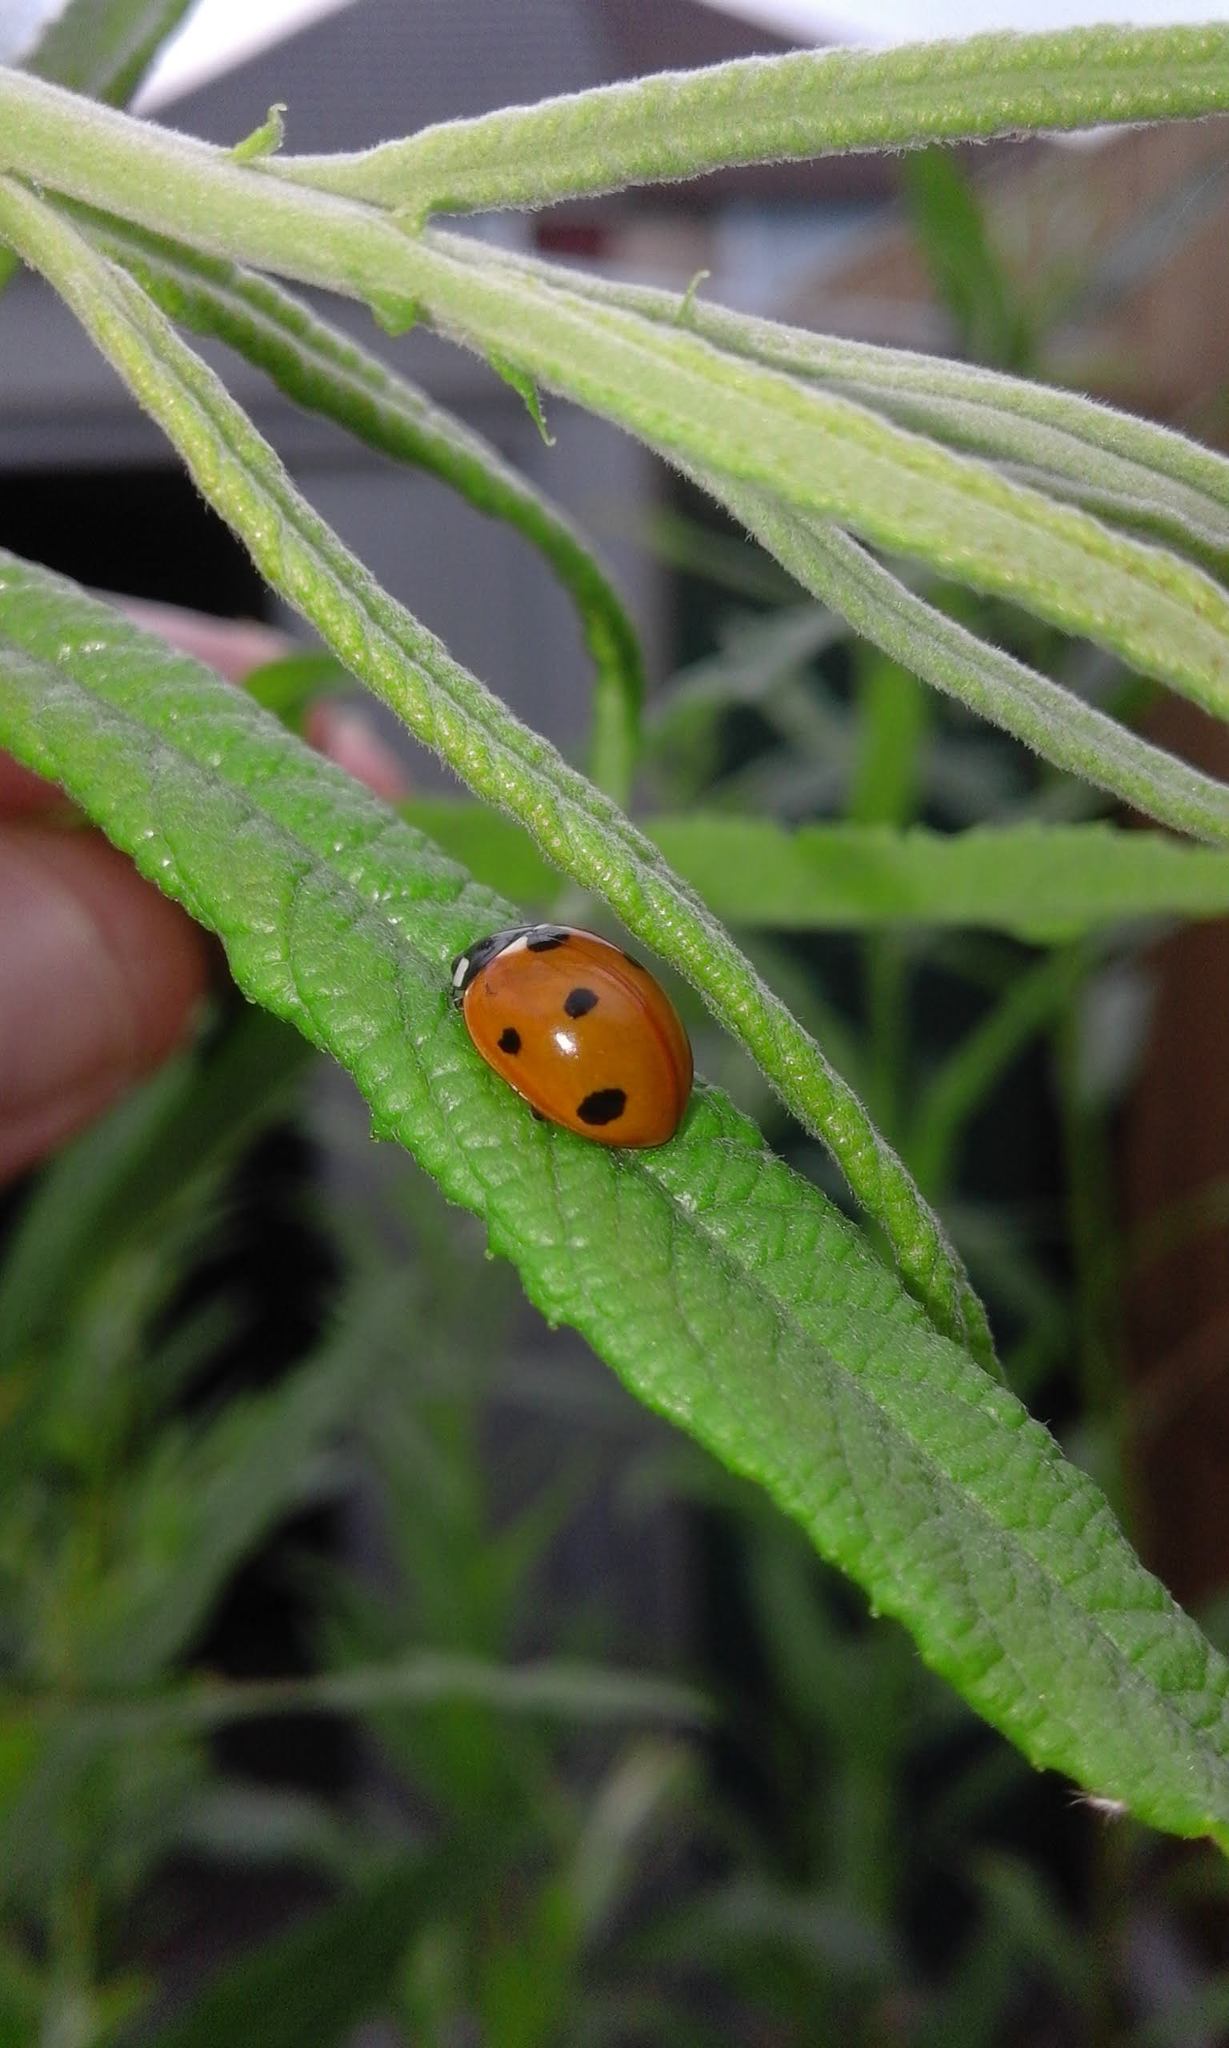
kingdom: Animalia
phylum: Arthropoda
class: Insecta
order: Coleoptera
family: Coccinellidae
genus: Coccinella
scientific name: Coccinella septempunctata
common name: Sevenspotted lady beetle
